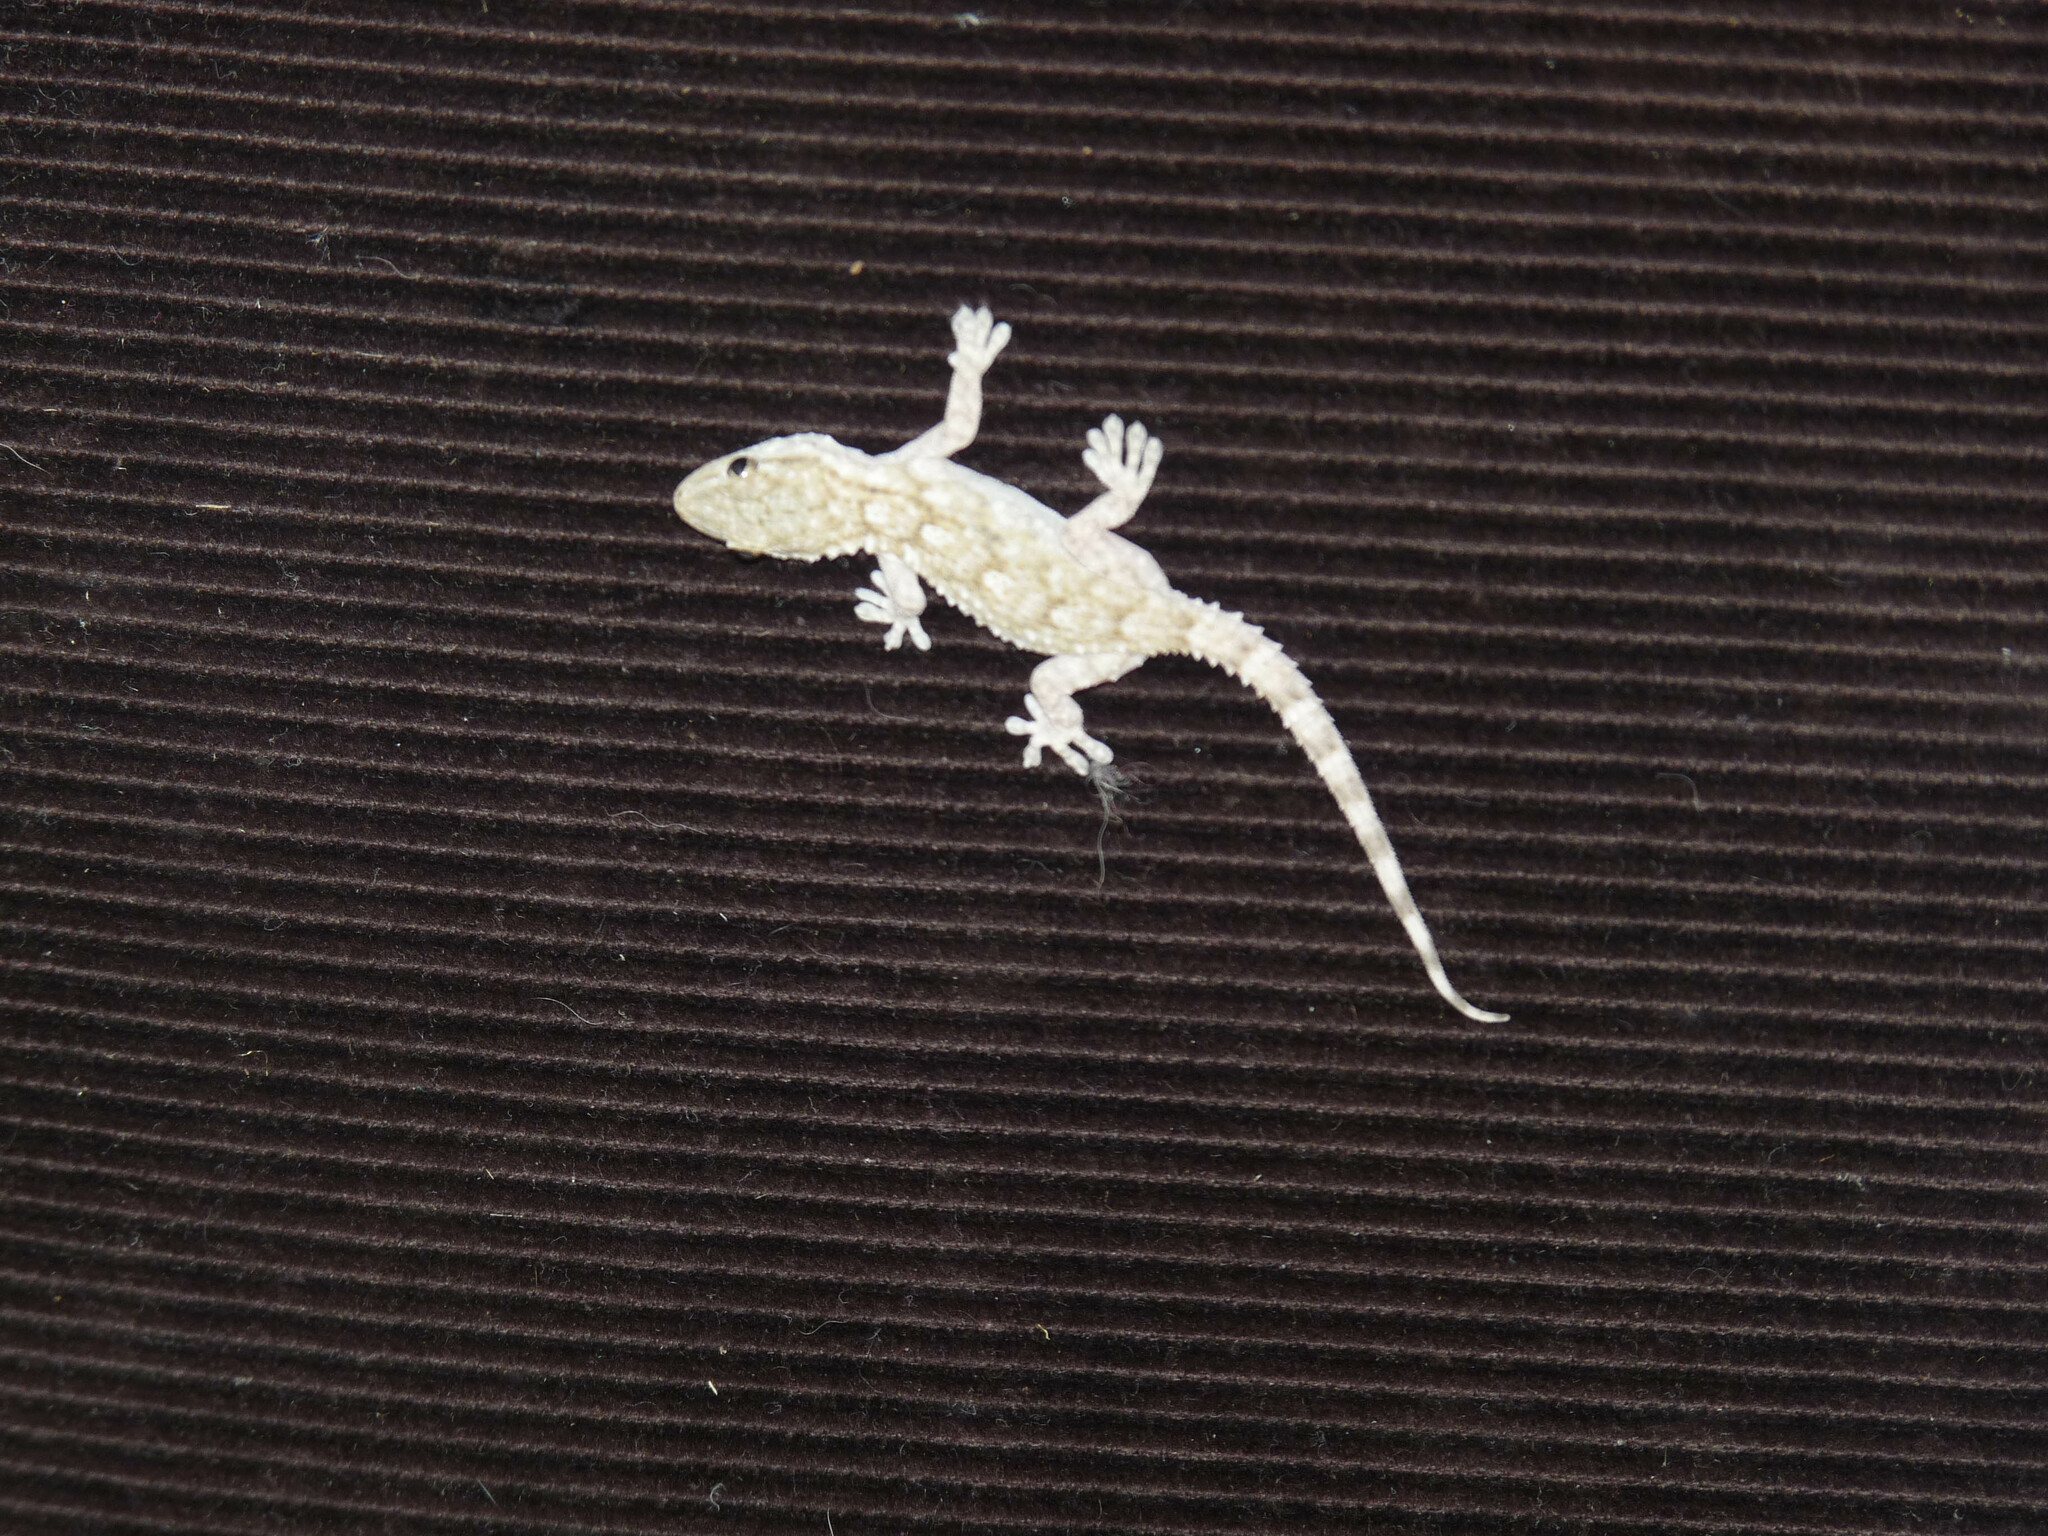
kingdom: Animalia
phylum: Chordata
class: Squamata
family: Phyllodactylidae
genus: Tarentola
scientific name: Tarentola mauritanica
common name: Moorish gecko
